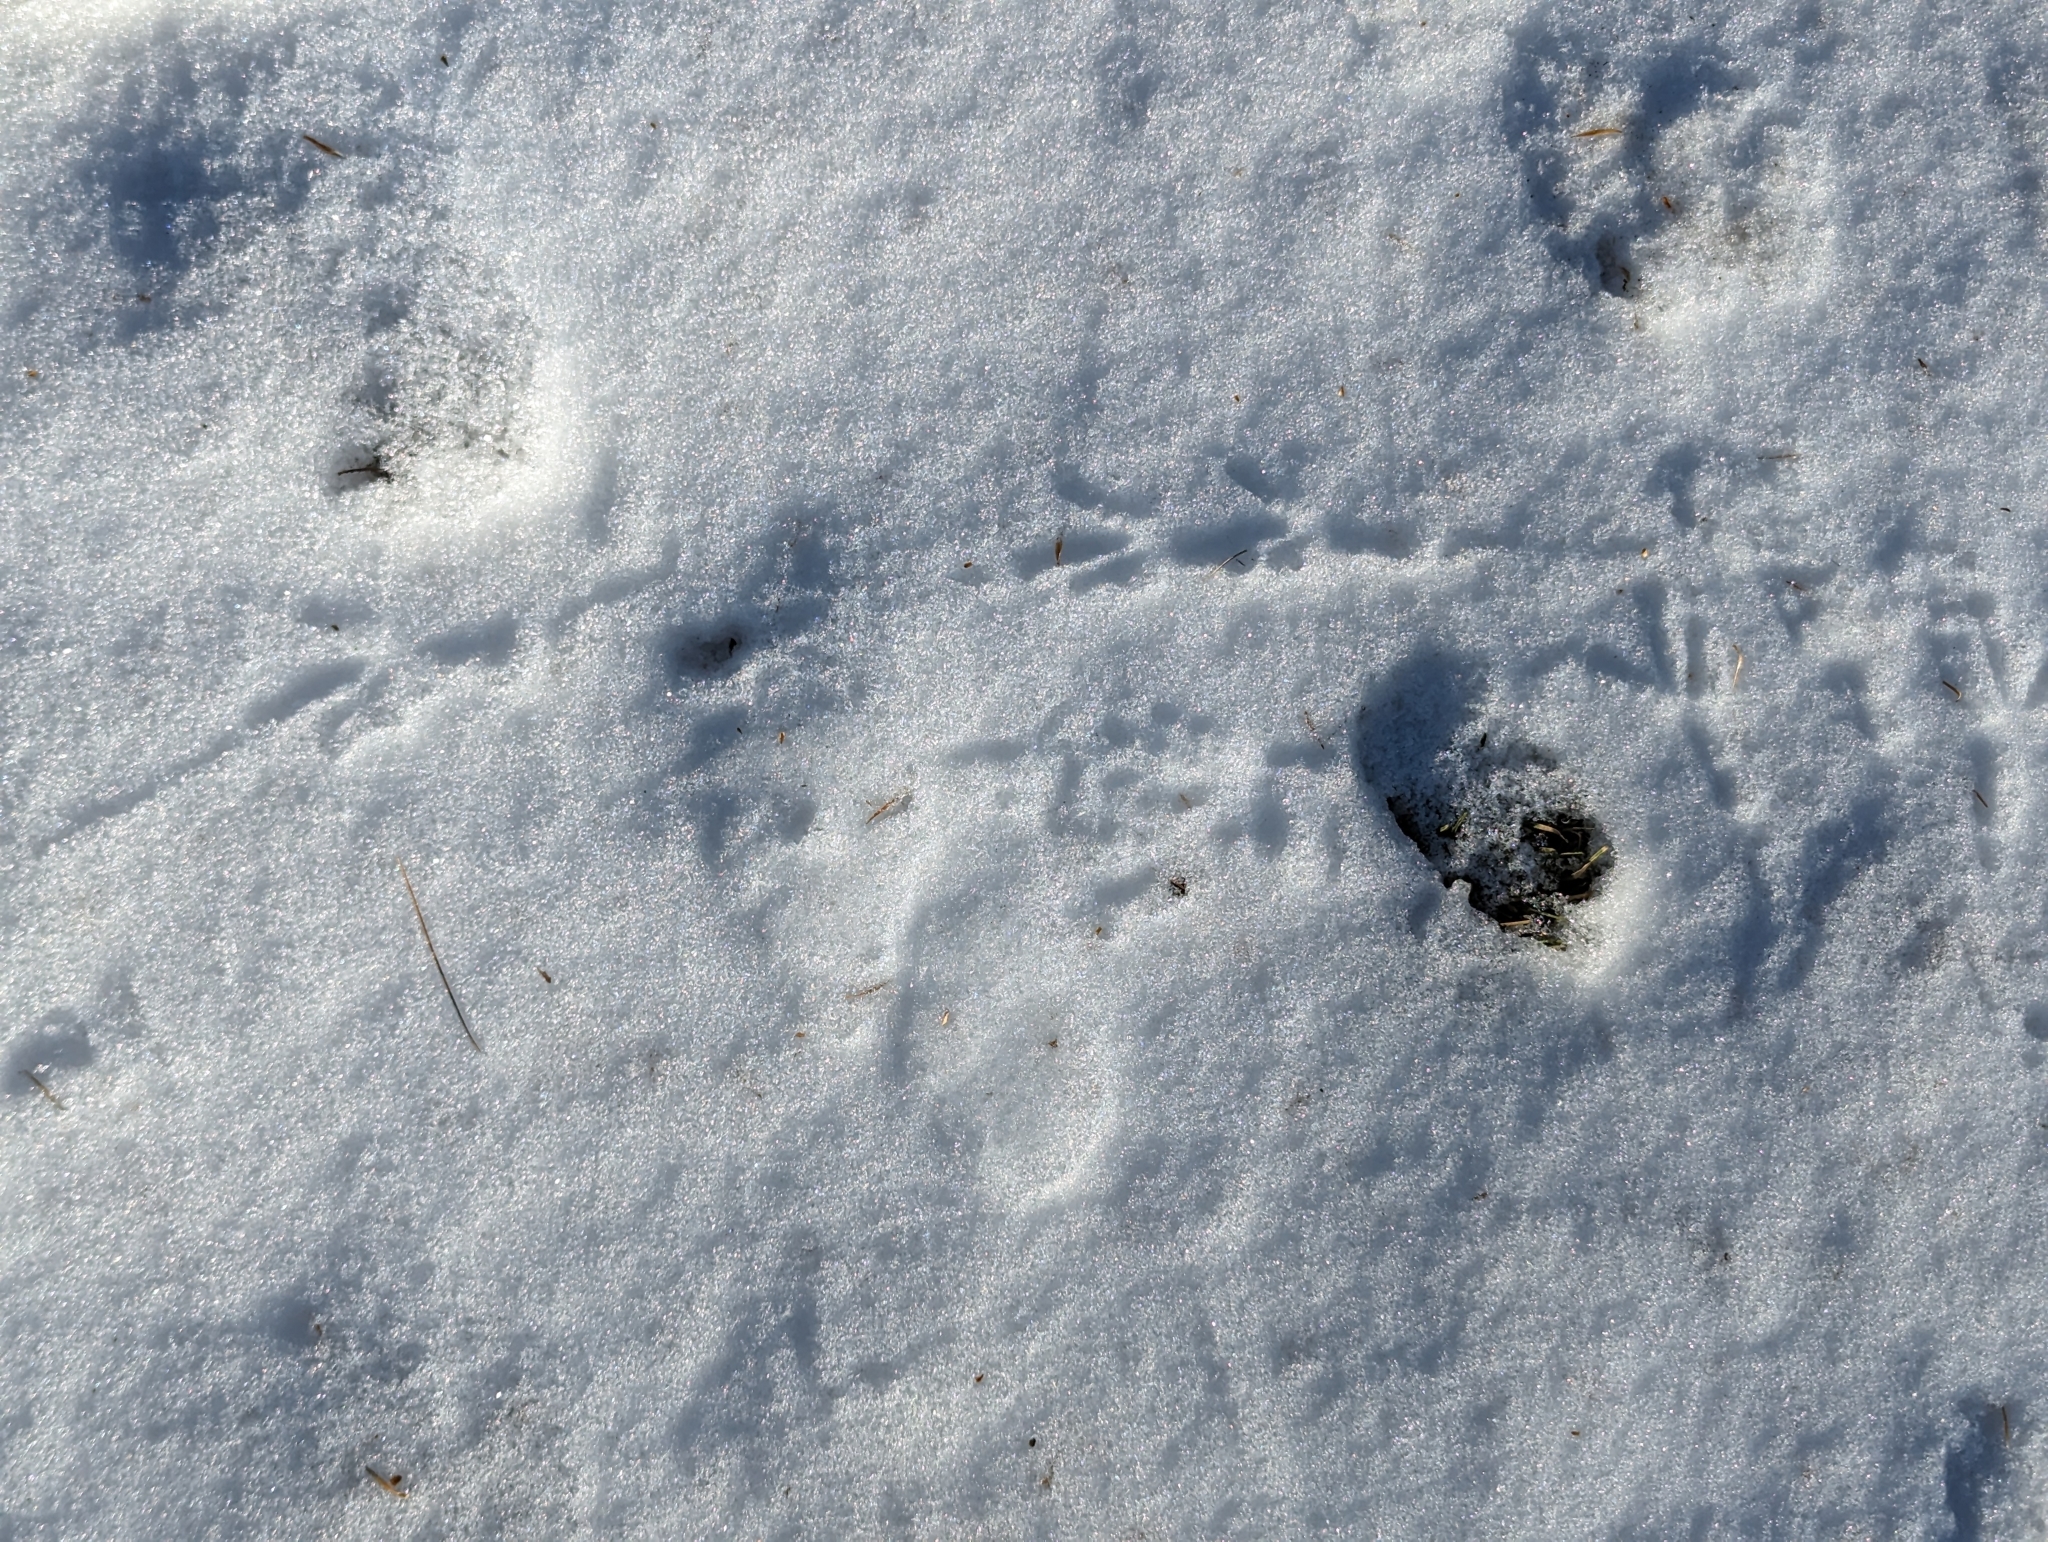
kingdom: Animalia
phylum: Chordata
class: Aves
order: Passeriformes
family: Corvidae
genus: Corvus
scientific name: Corvus brachyrhynchos
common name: American crow
